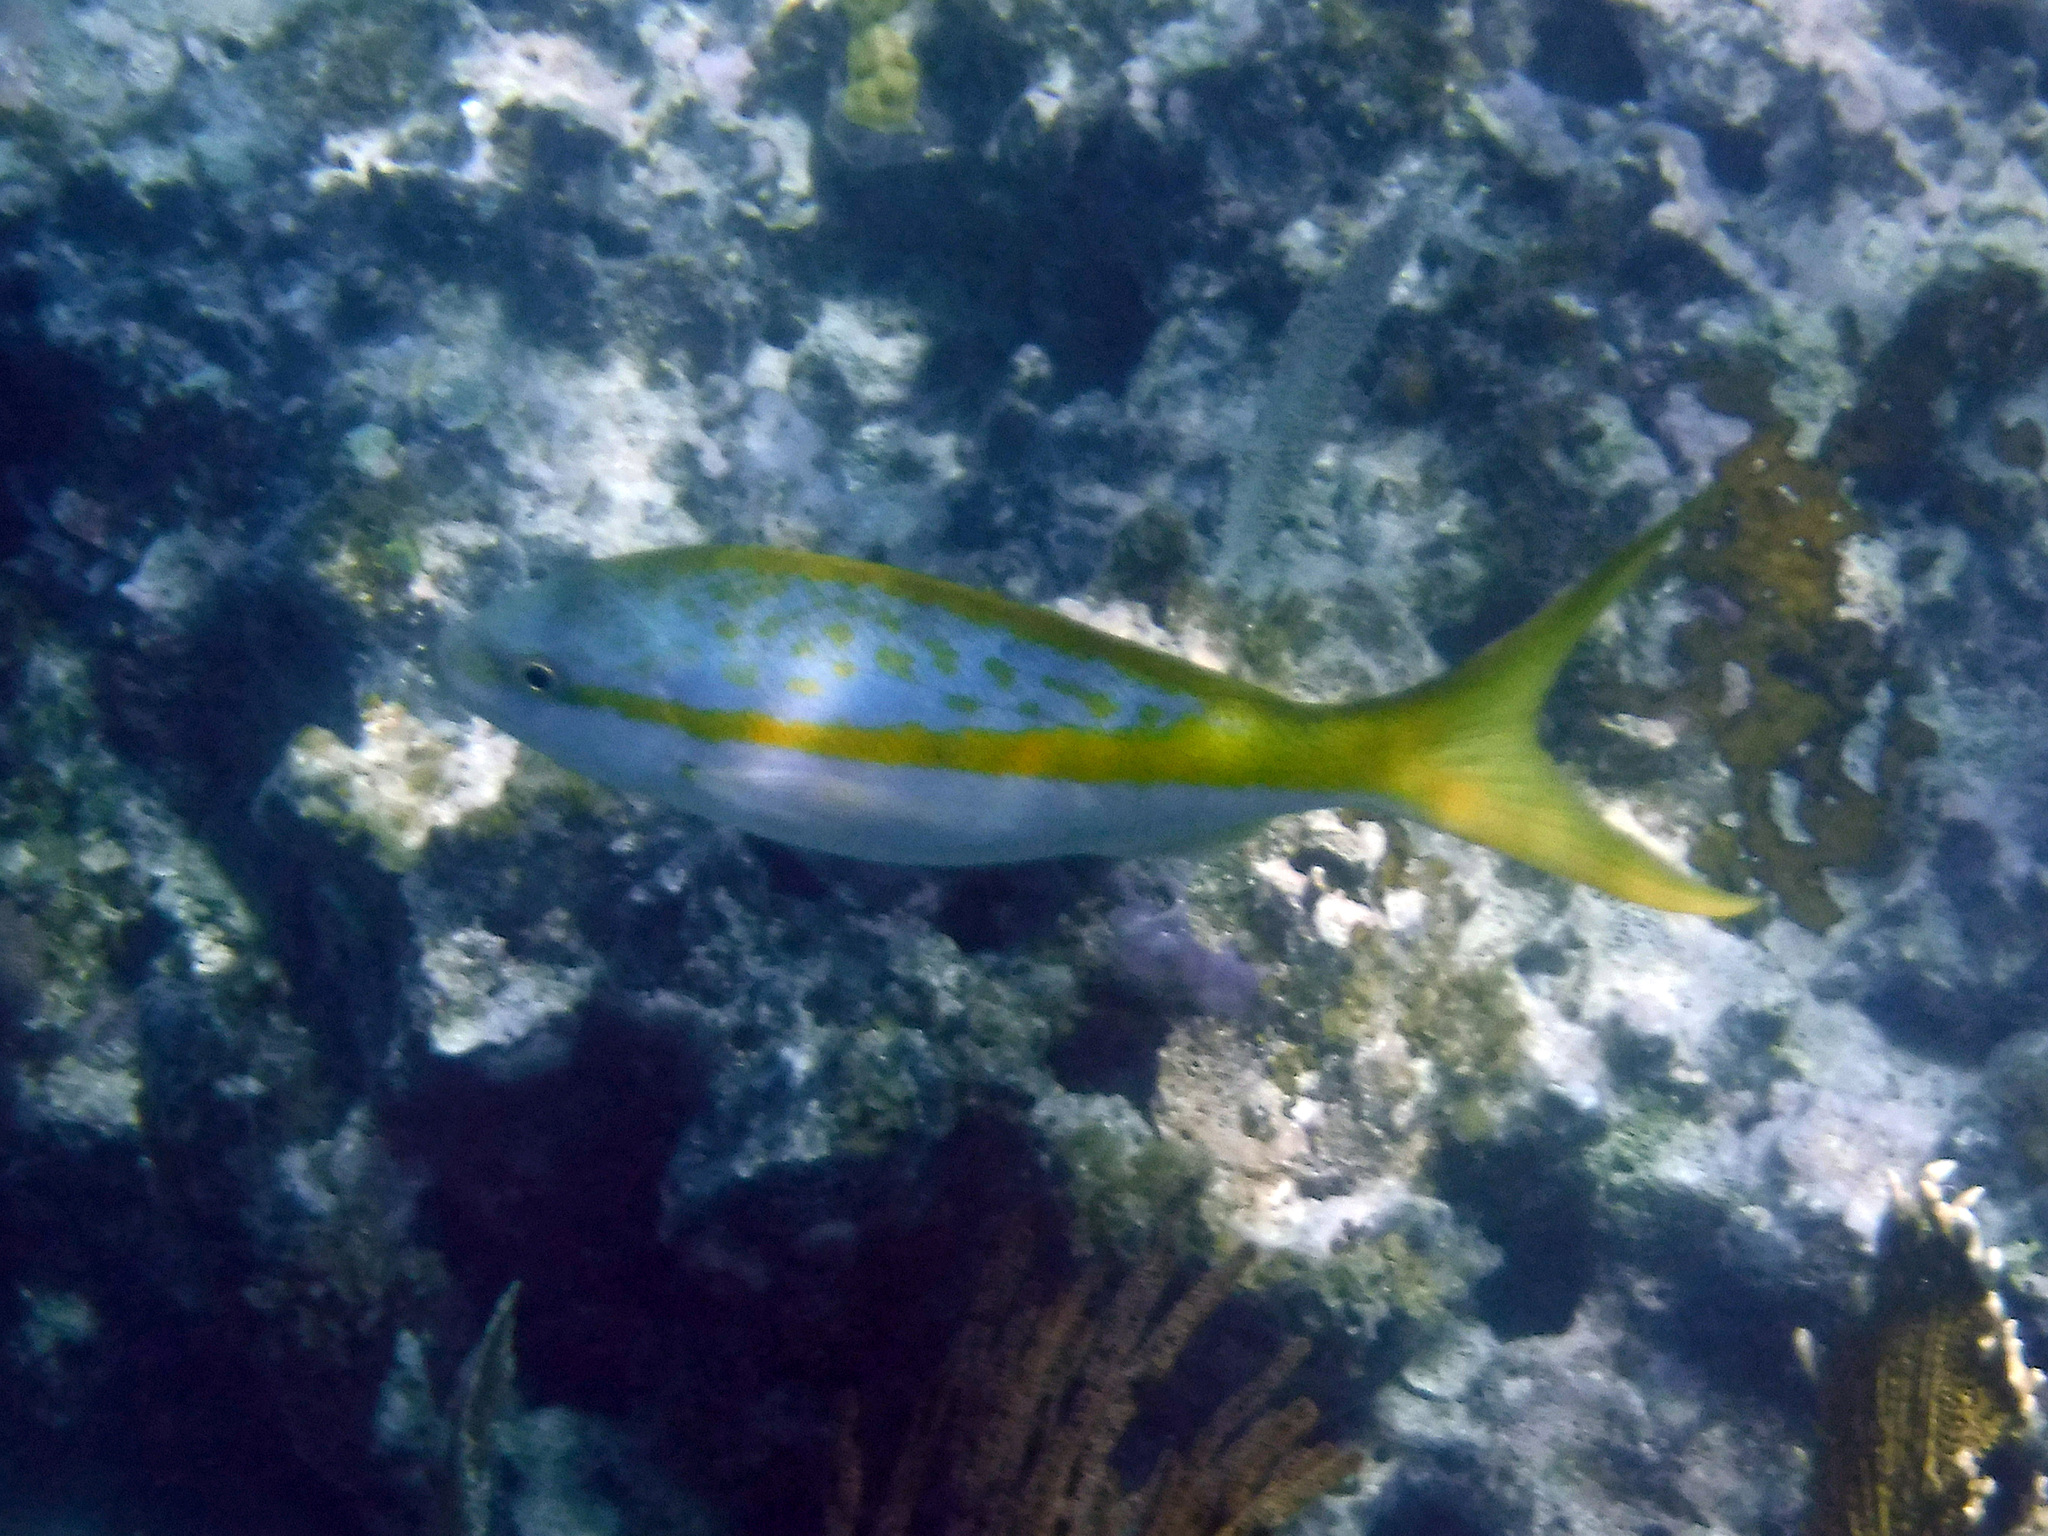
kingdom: Animalia
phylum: Chordata
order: Perciformes
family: Lutjanidae
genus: Ocyurus
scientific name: Ocyurus chrysurus
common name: Yellowtail snapper
